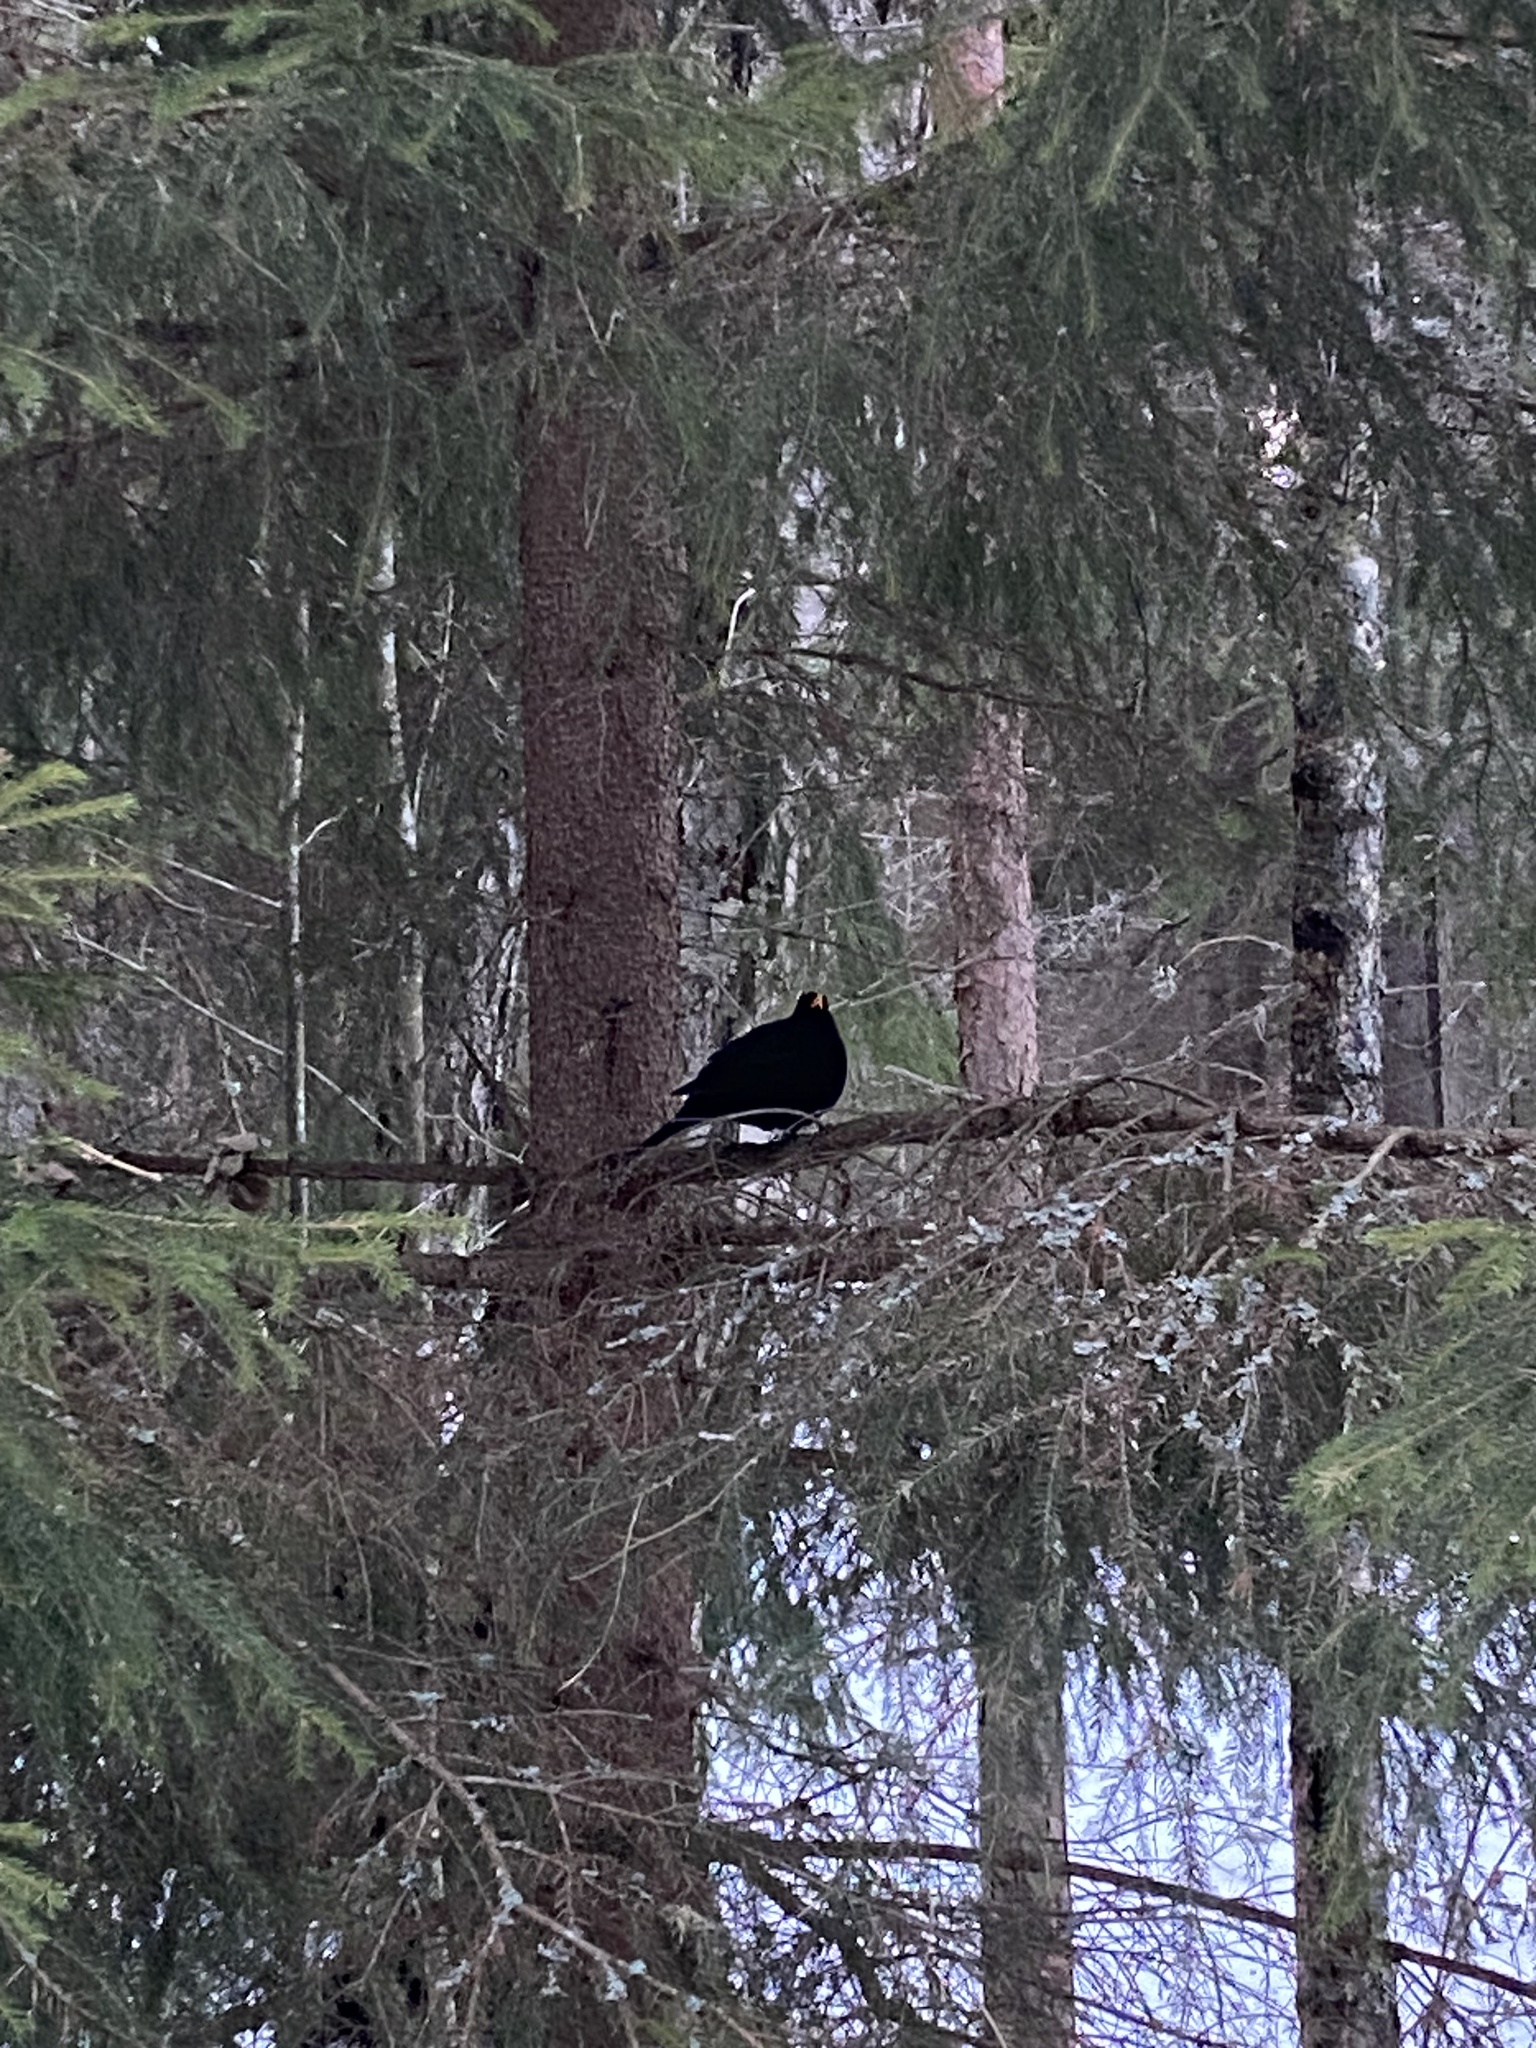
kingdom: Animalia
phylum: Chordata
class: Aves
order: Passeriformes
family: Turdidae
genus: Turdus
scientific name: Turdus merula
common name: Common blackbird
